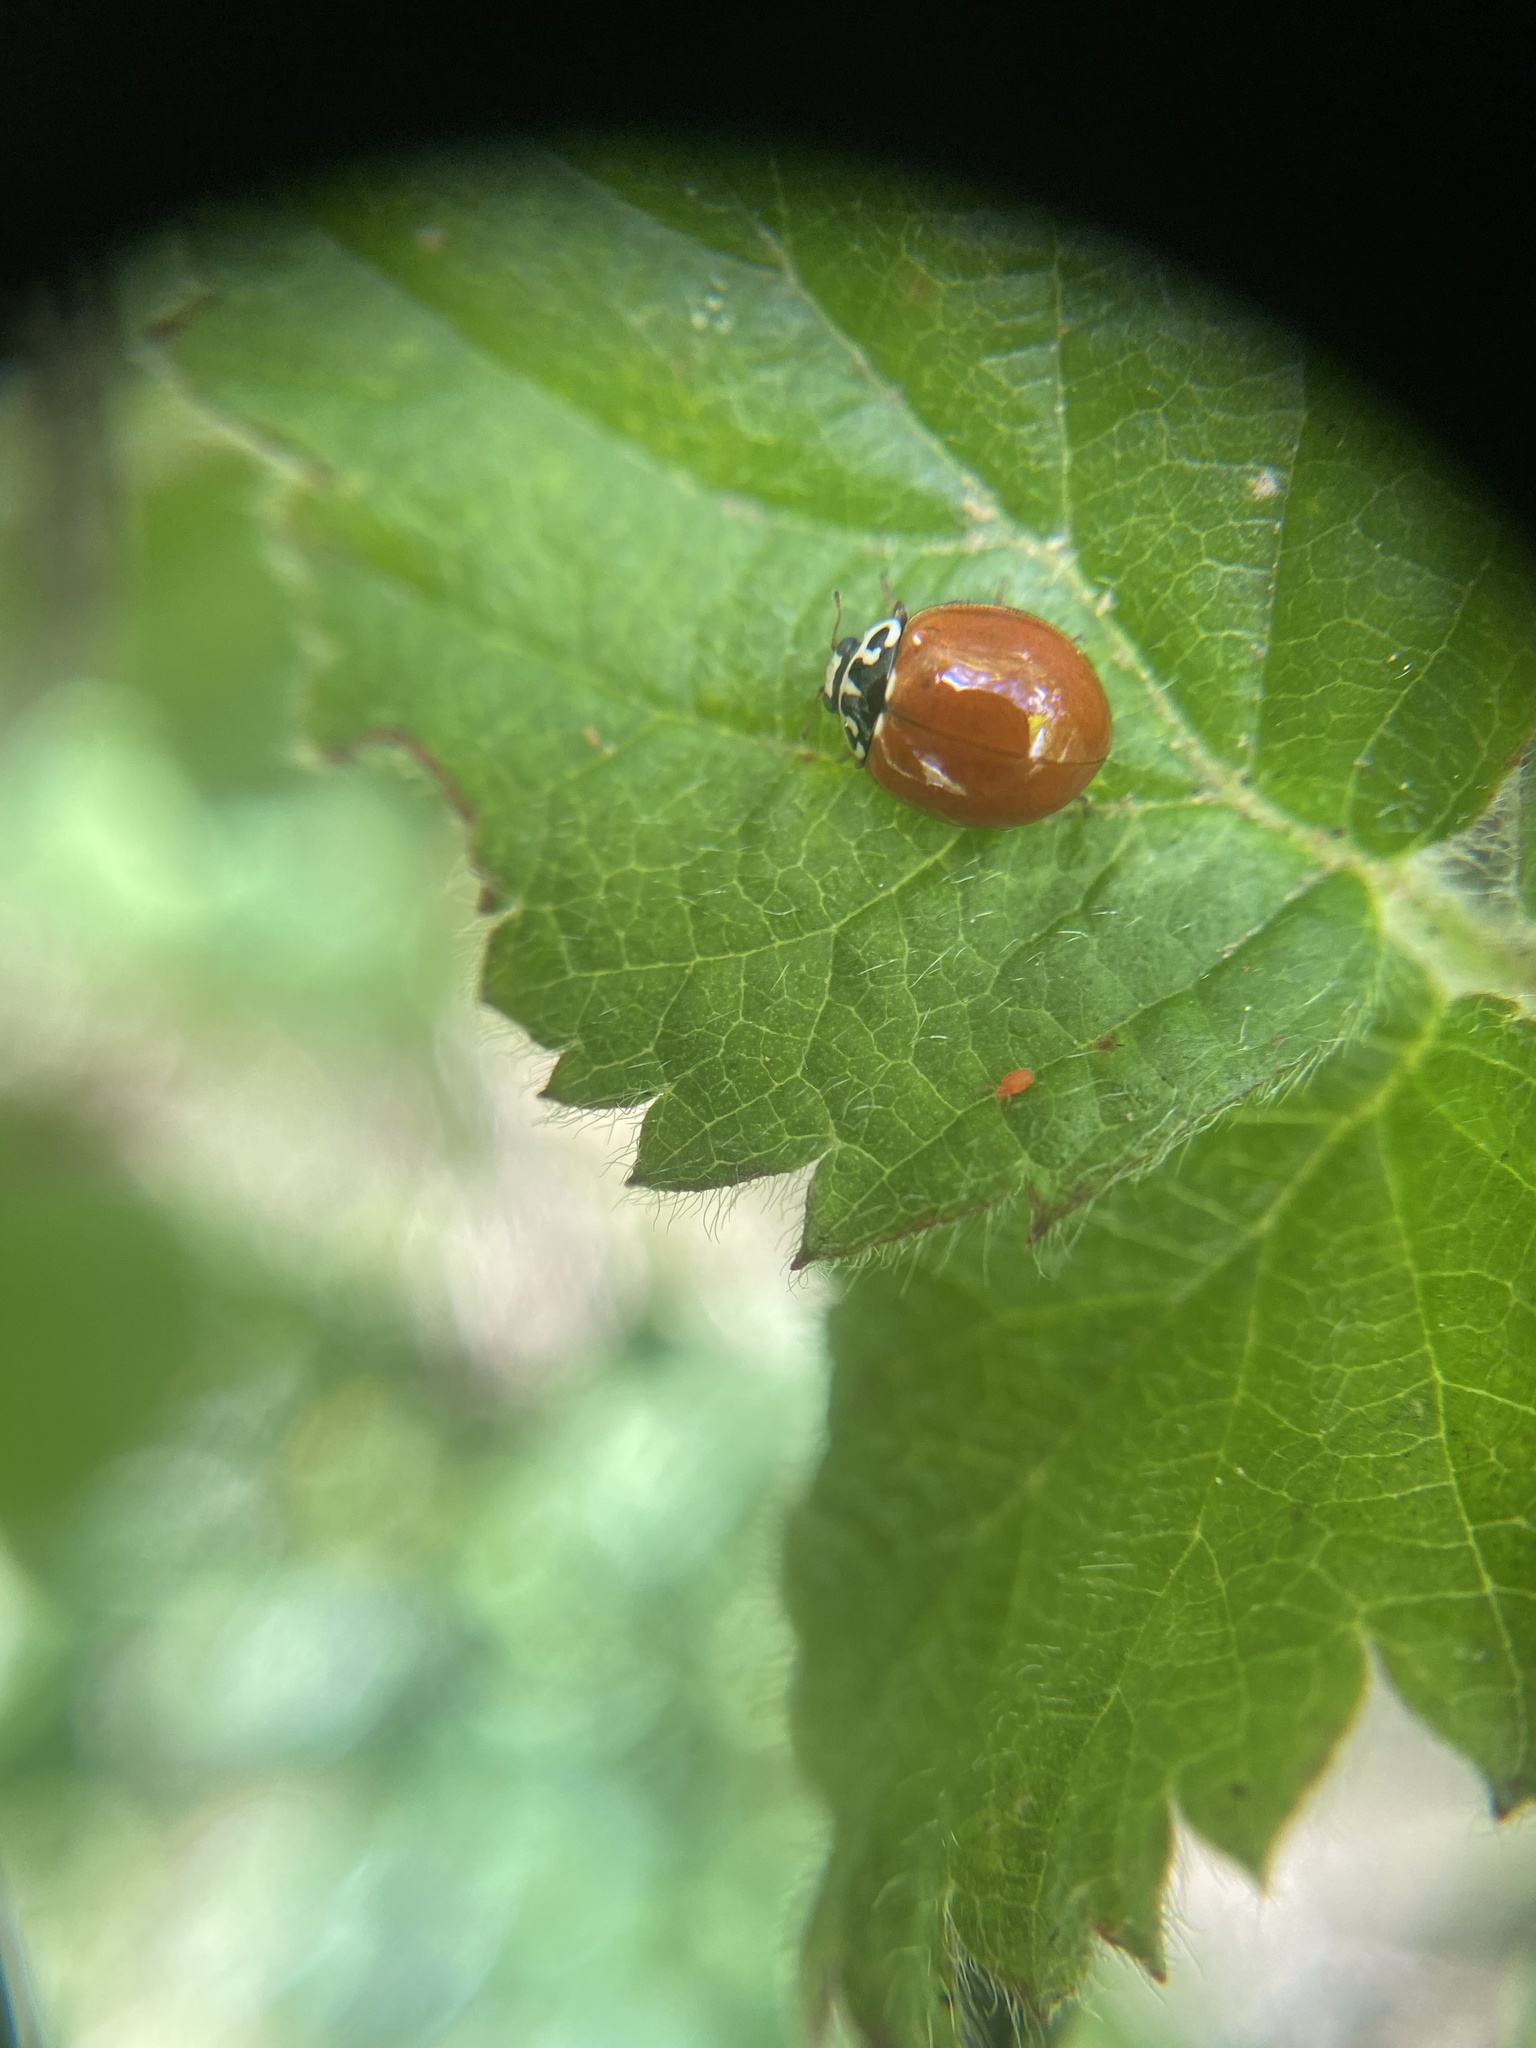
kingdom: Animalia
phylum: Arthropoda
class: Insecta
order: Coleoptera
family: Coccinellidae
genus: Cycloneda
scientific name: Cycloneda polita
